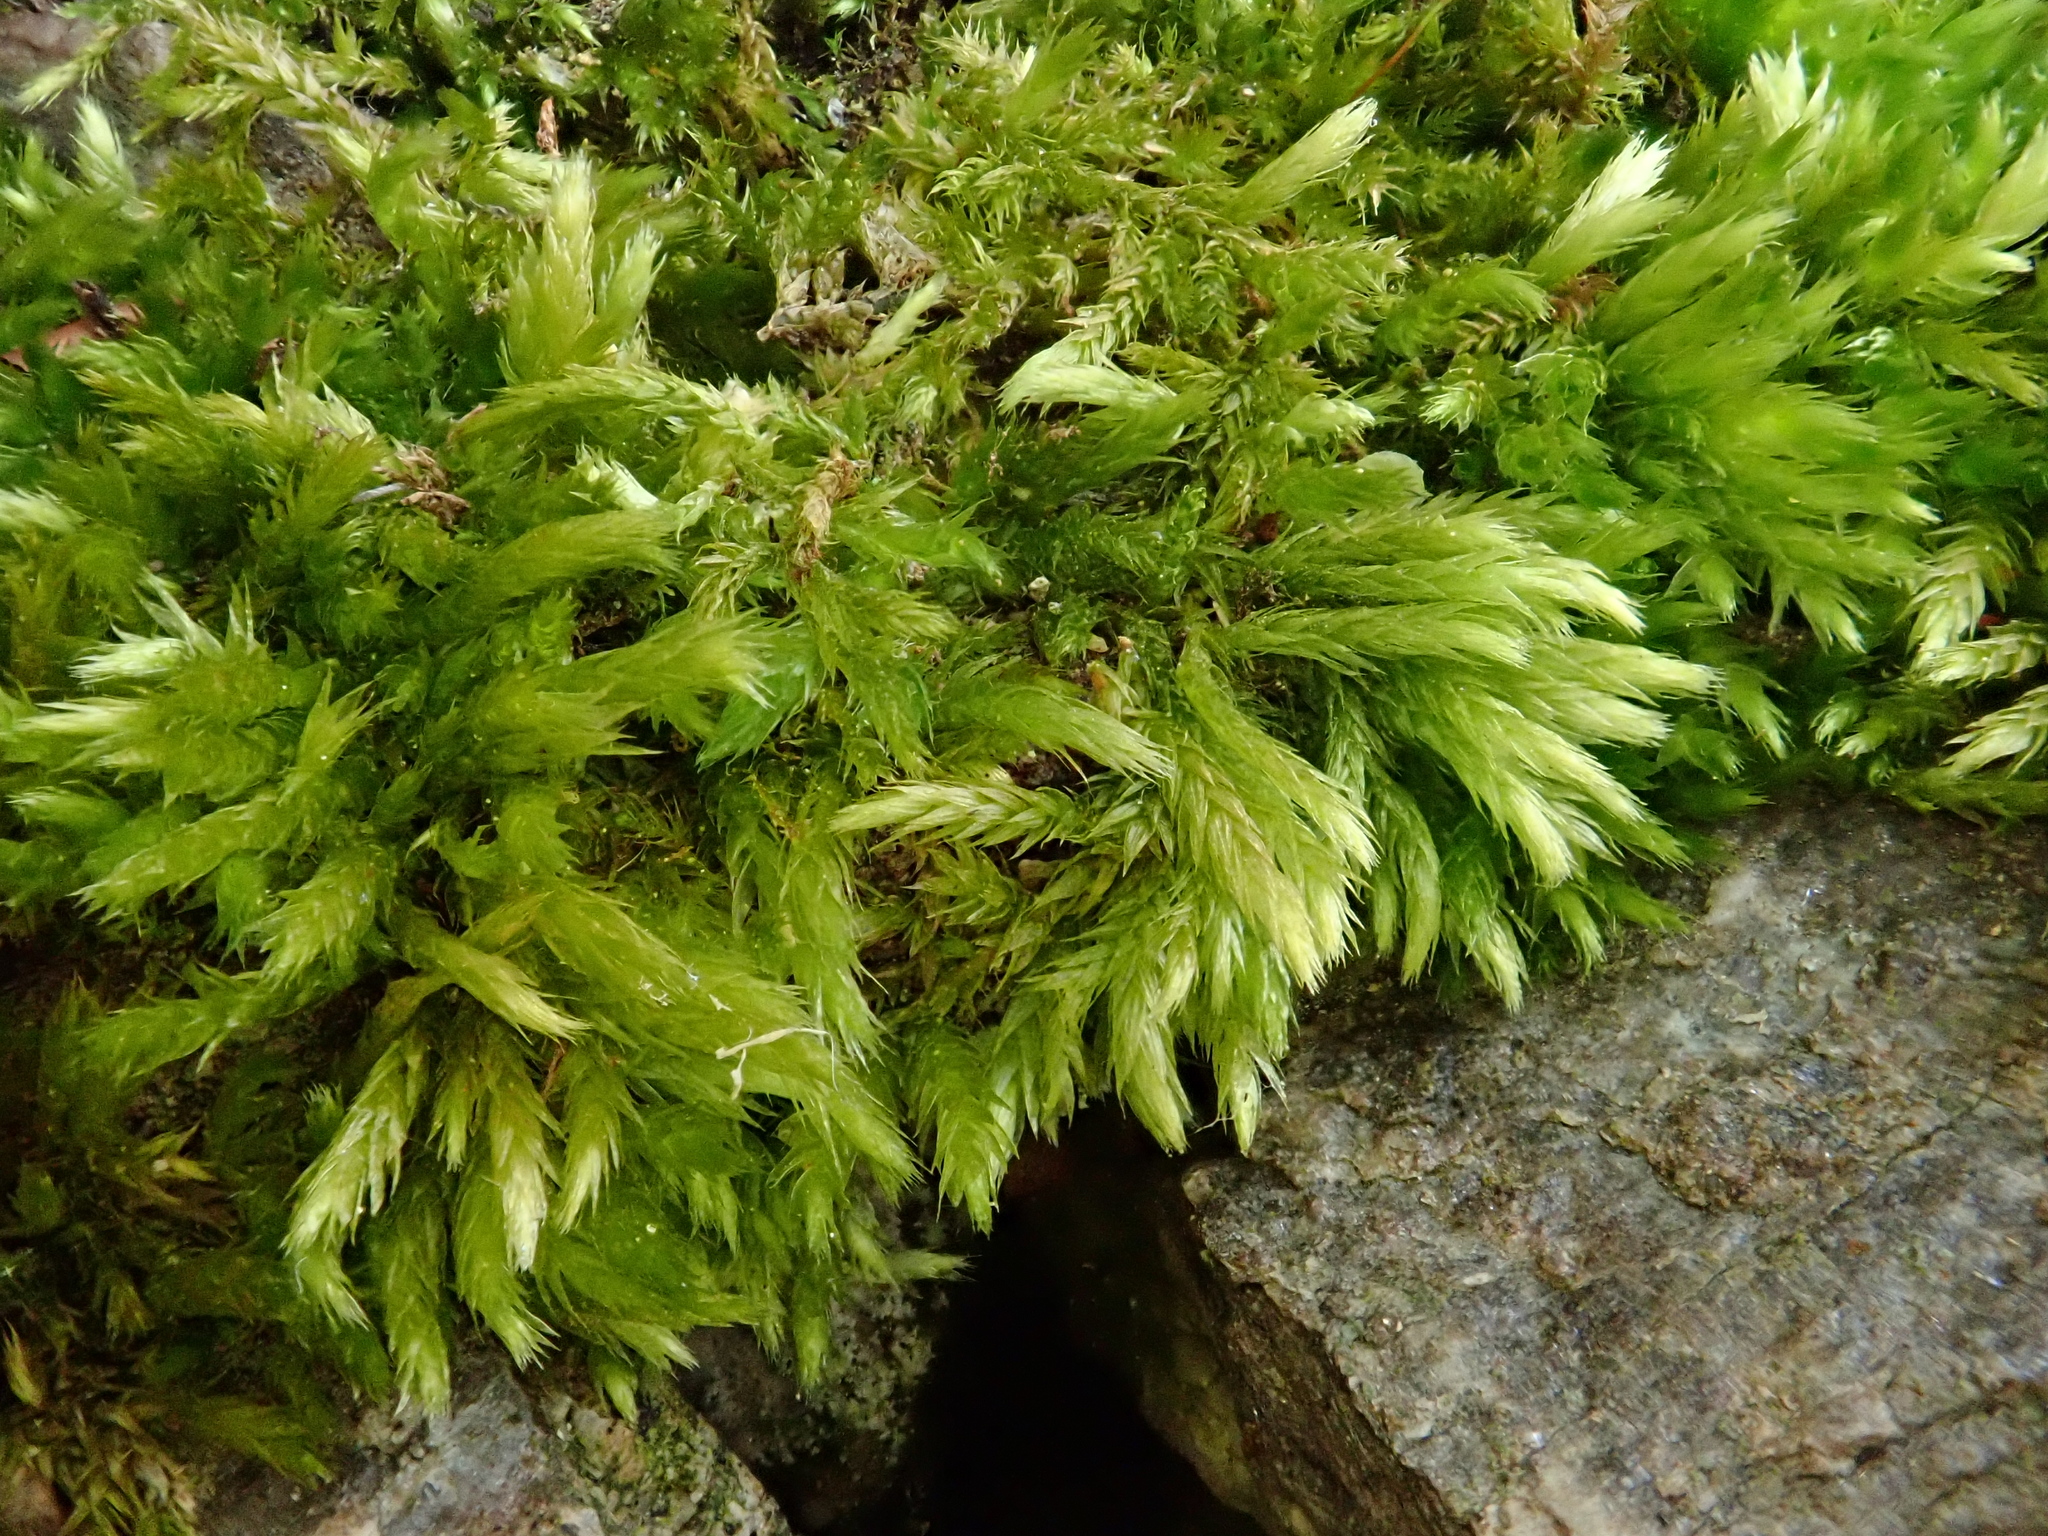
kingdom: Plantae
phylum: Bryophyta
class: Bryopsida
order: Hypnales
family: Brachytheciaceae
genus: Brachythecium
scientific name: Brachythecium tommasinii
